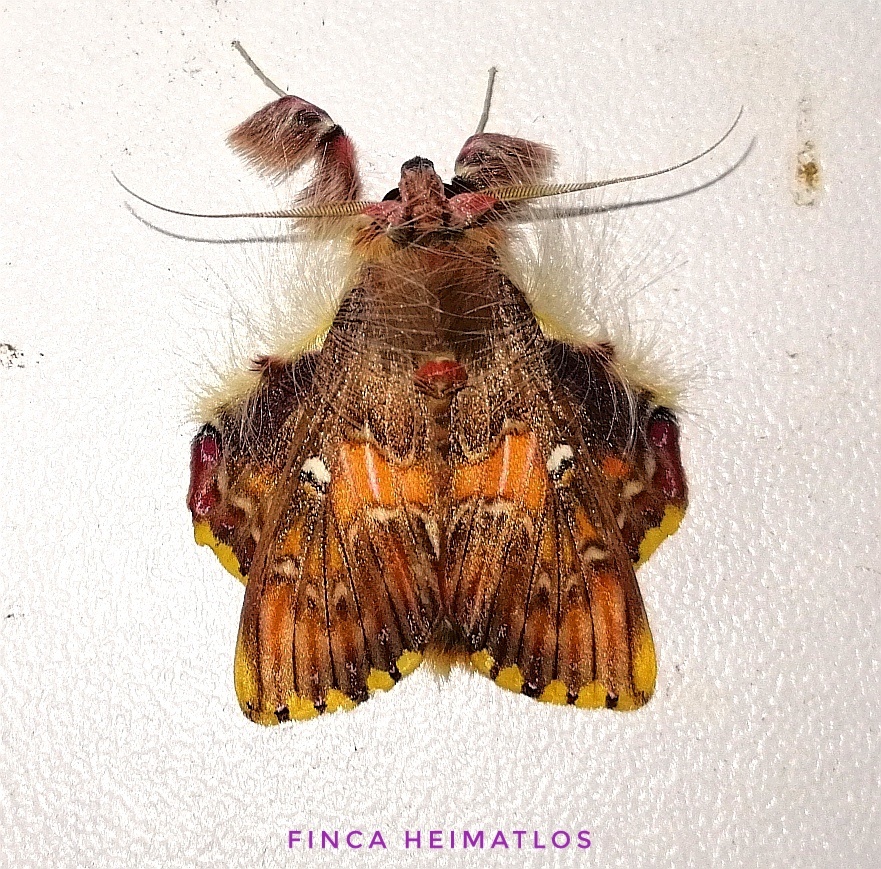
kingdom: Animalia
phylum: Arthropoda
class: Insecta
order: Lepidoptera
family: Erebidae
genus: Sosxetra
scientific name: Sosxetra grata
